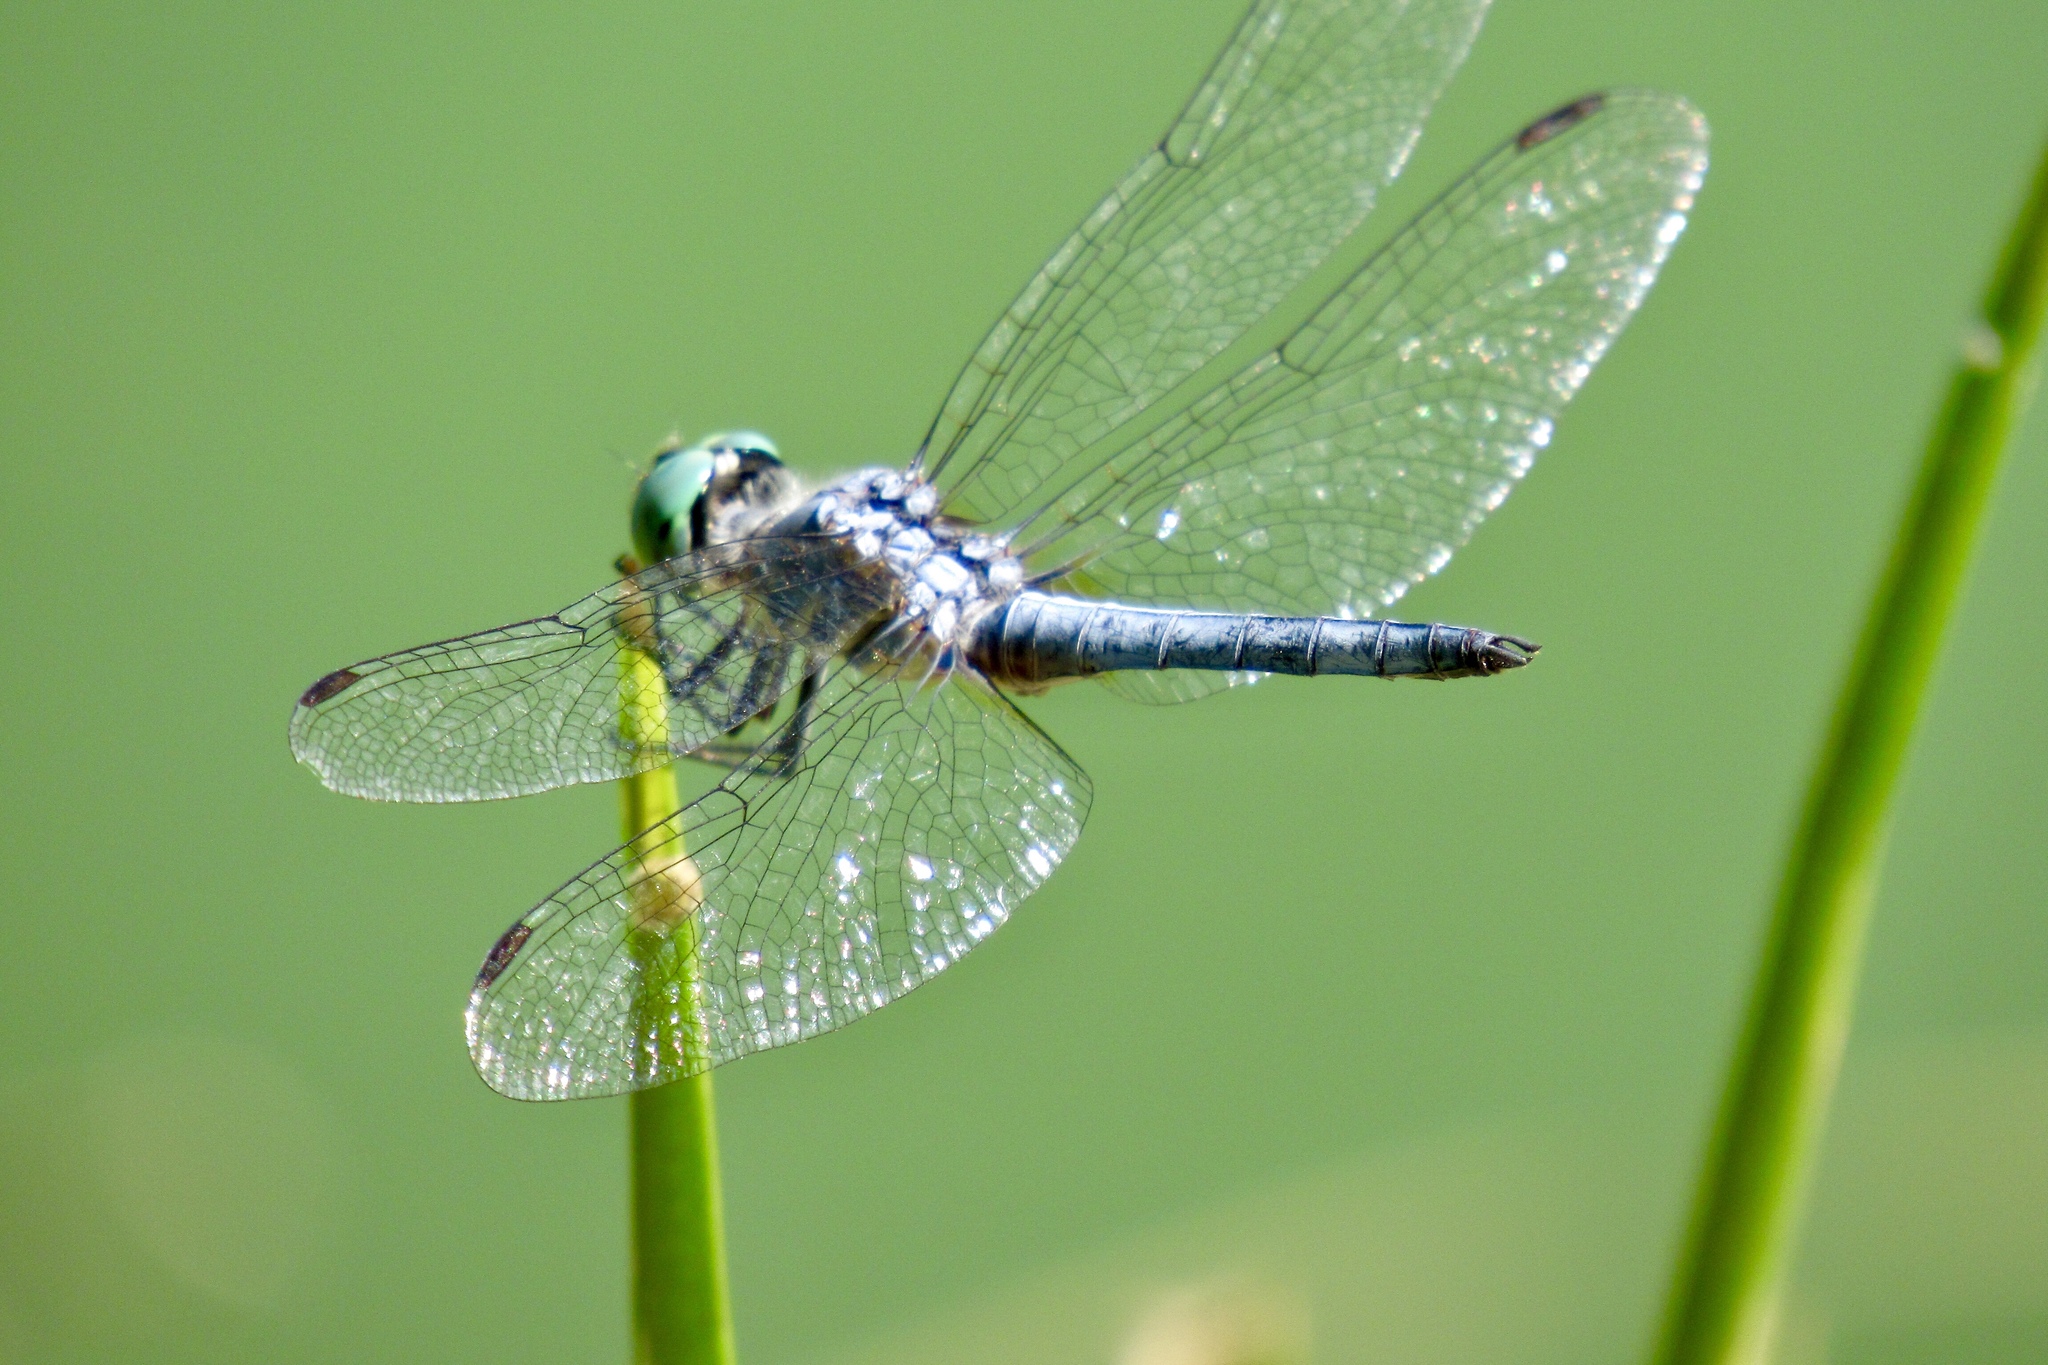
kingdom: Animalia
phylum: Arthropoda
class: Insecta
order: Odonata
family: Libellulidae
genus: Pachydiplax
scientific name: Pachydiplax longipennis
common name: Blue dasher
